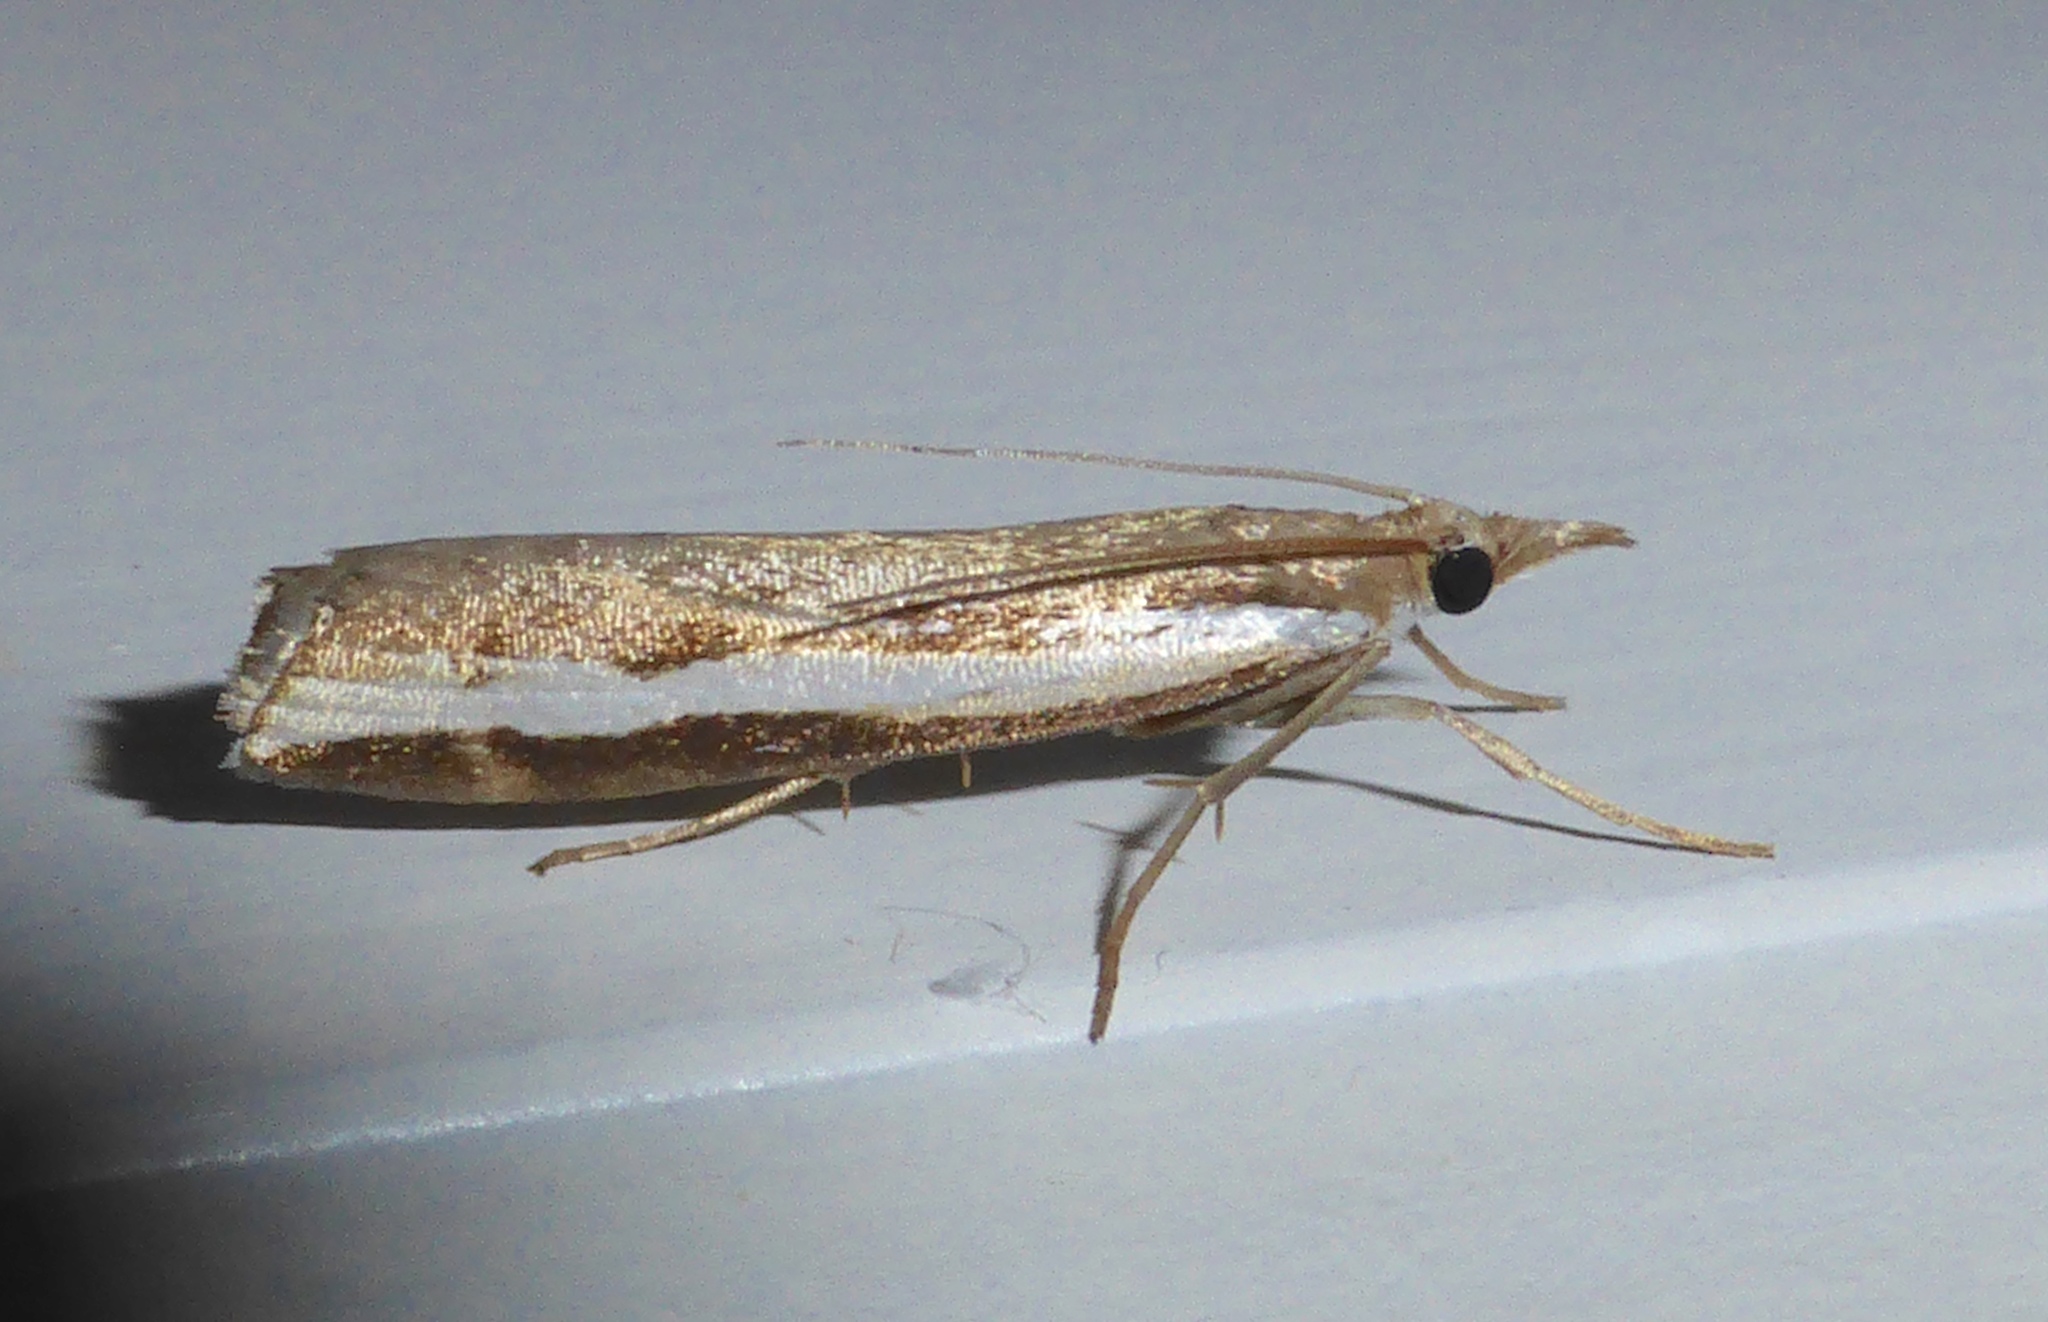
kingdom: Animalia
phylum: Arthropoda
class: Insecta
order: Lepidoptera
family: Crambidae
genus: Orocrambus
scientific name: Orocrambus flexuosellus
